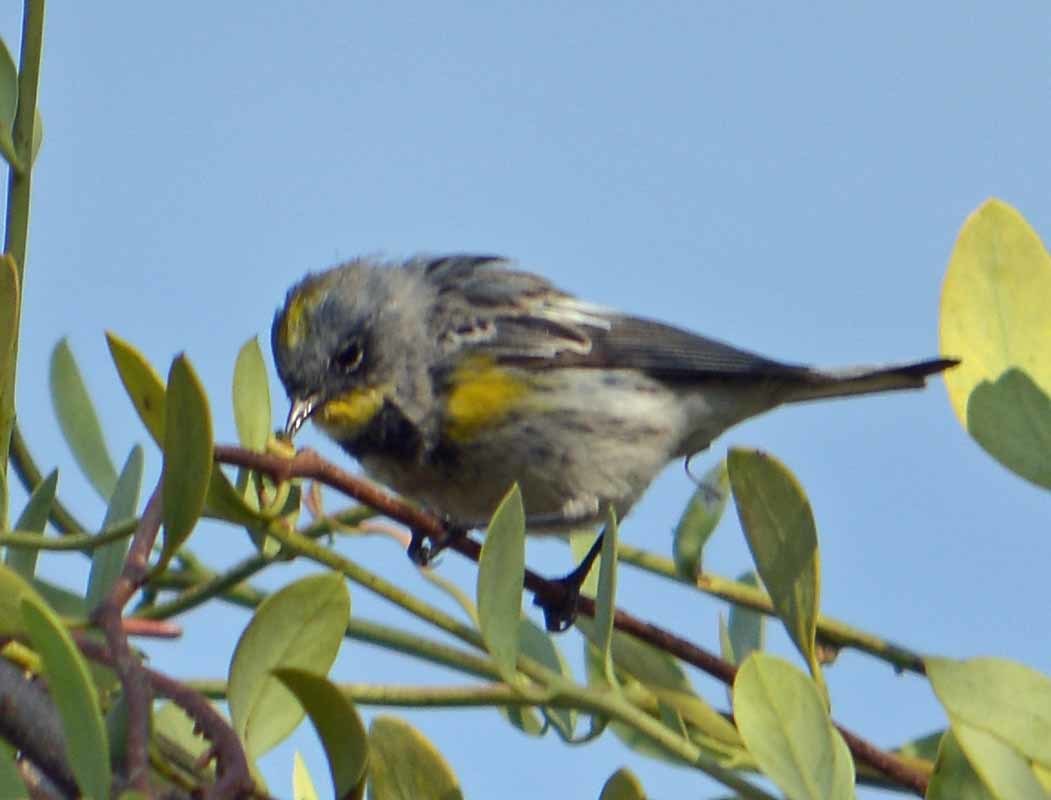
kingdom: Animalia
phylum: Chordata
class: Aves
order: Passeriformes
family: Parulidae
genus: Setophaga
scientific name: Setophaga coronata
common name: Myrtle warbler
